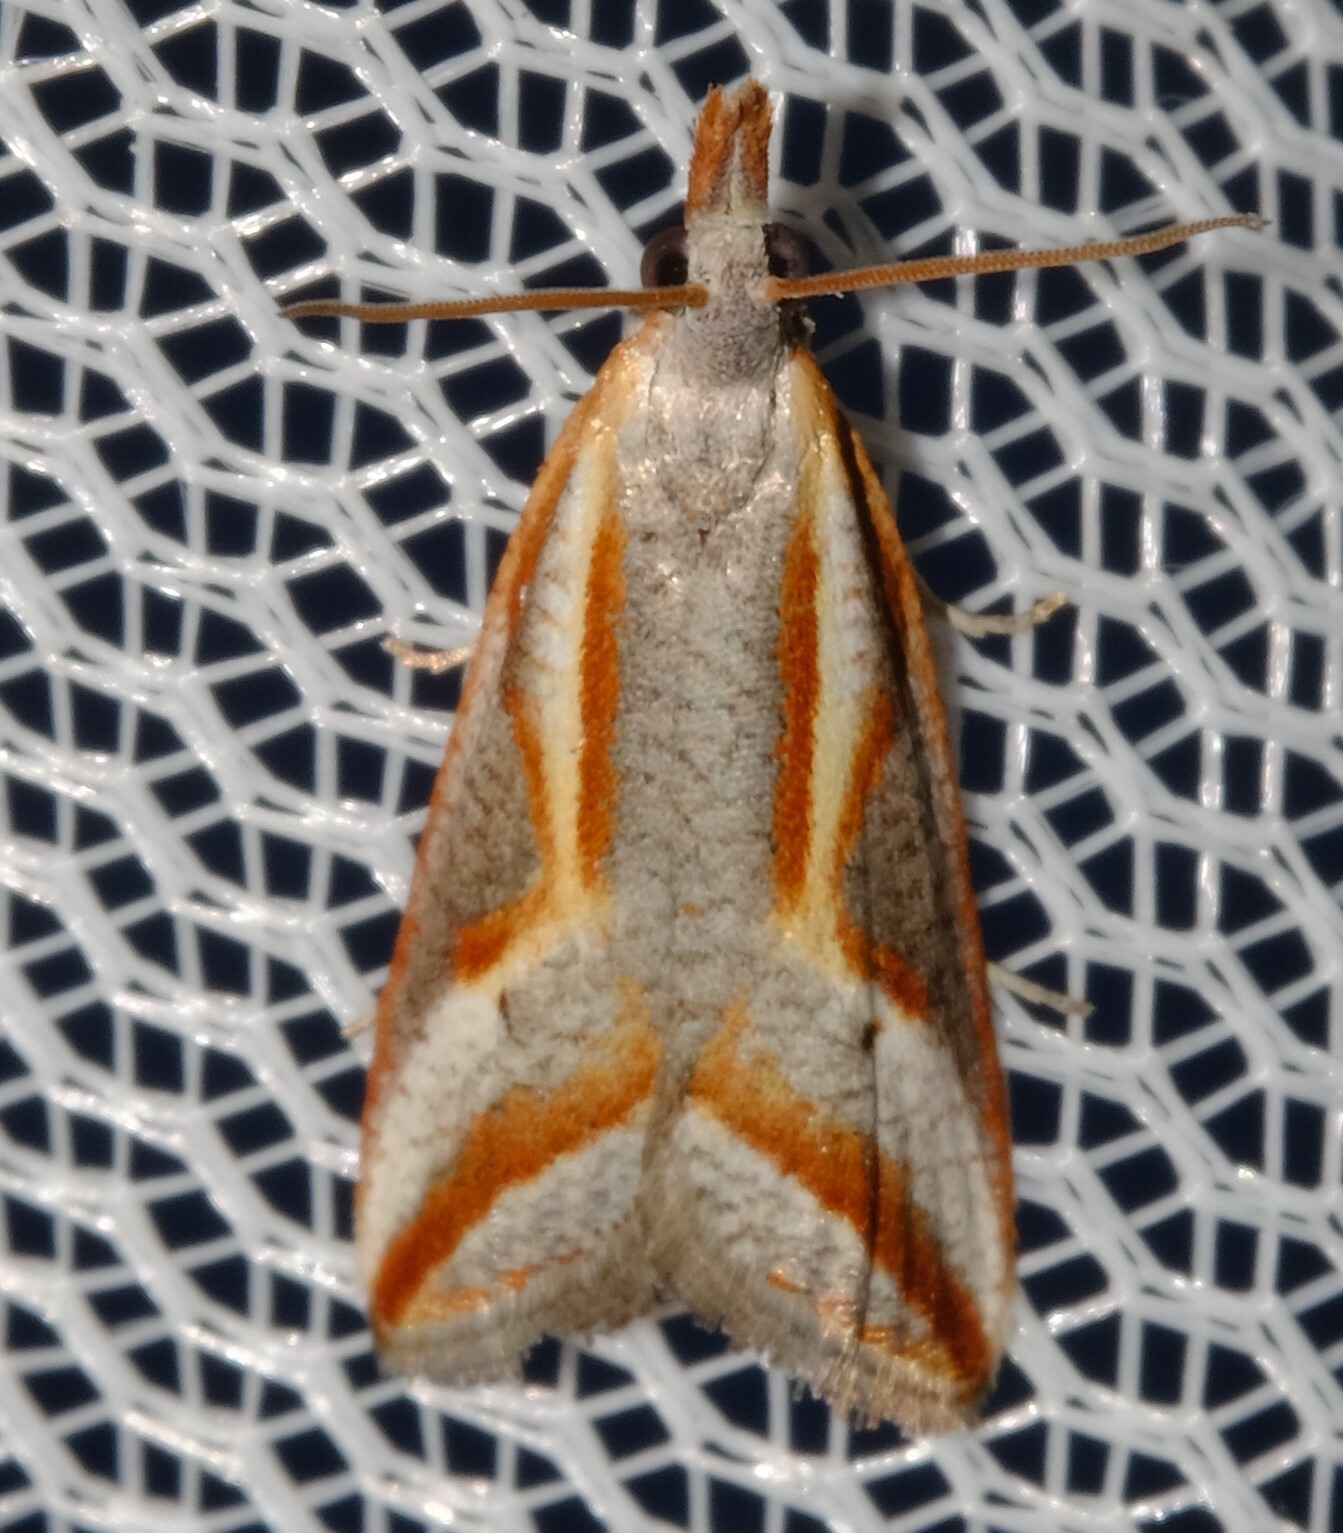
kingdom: Animalia
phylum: Arthropoda
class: Insecta
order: Lepidoptera
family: Tortricidae
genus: Arotrophora
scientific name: Arotrophora arcuatalis
